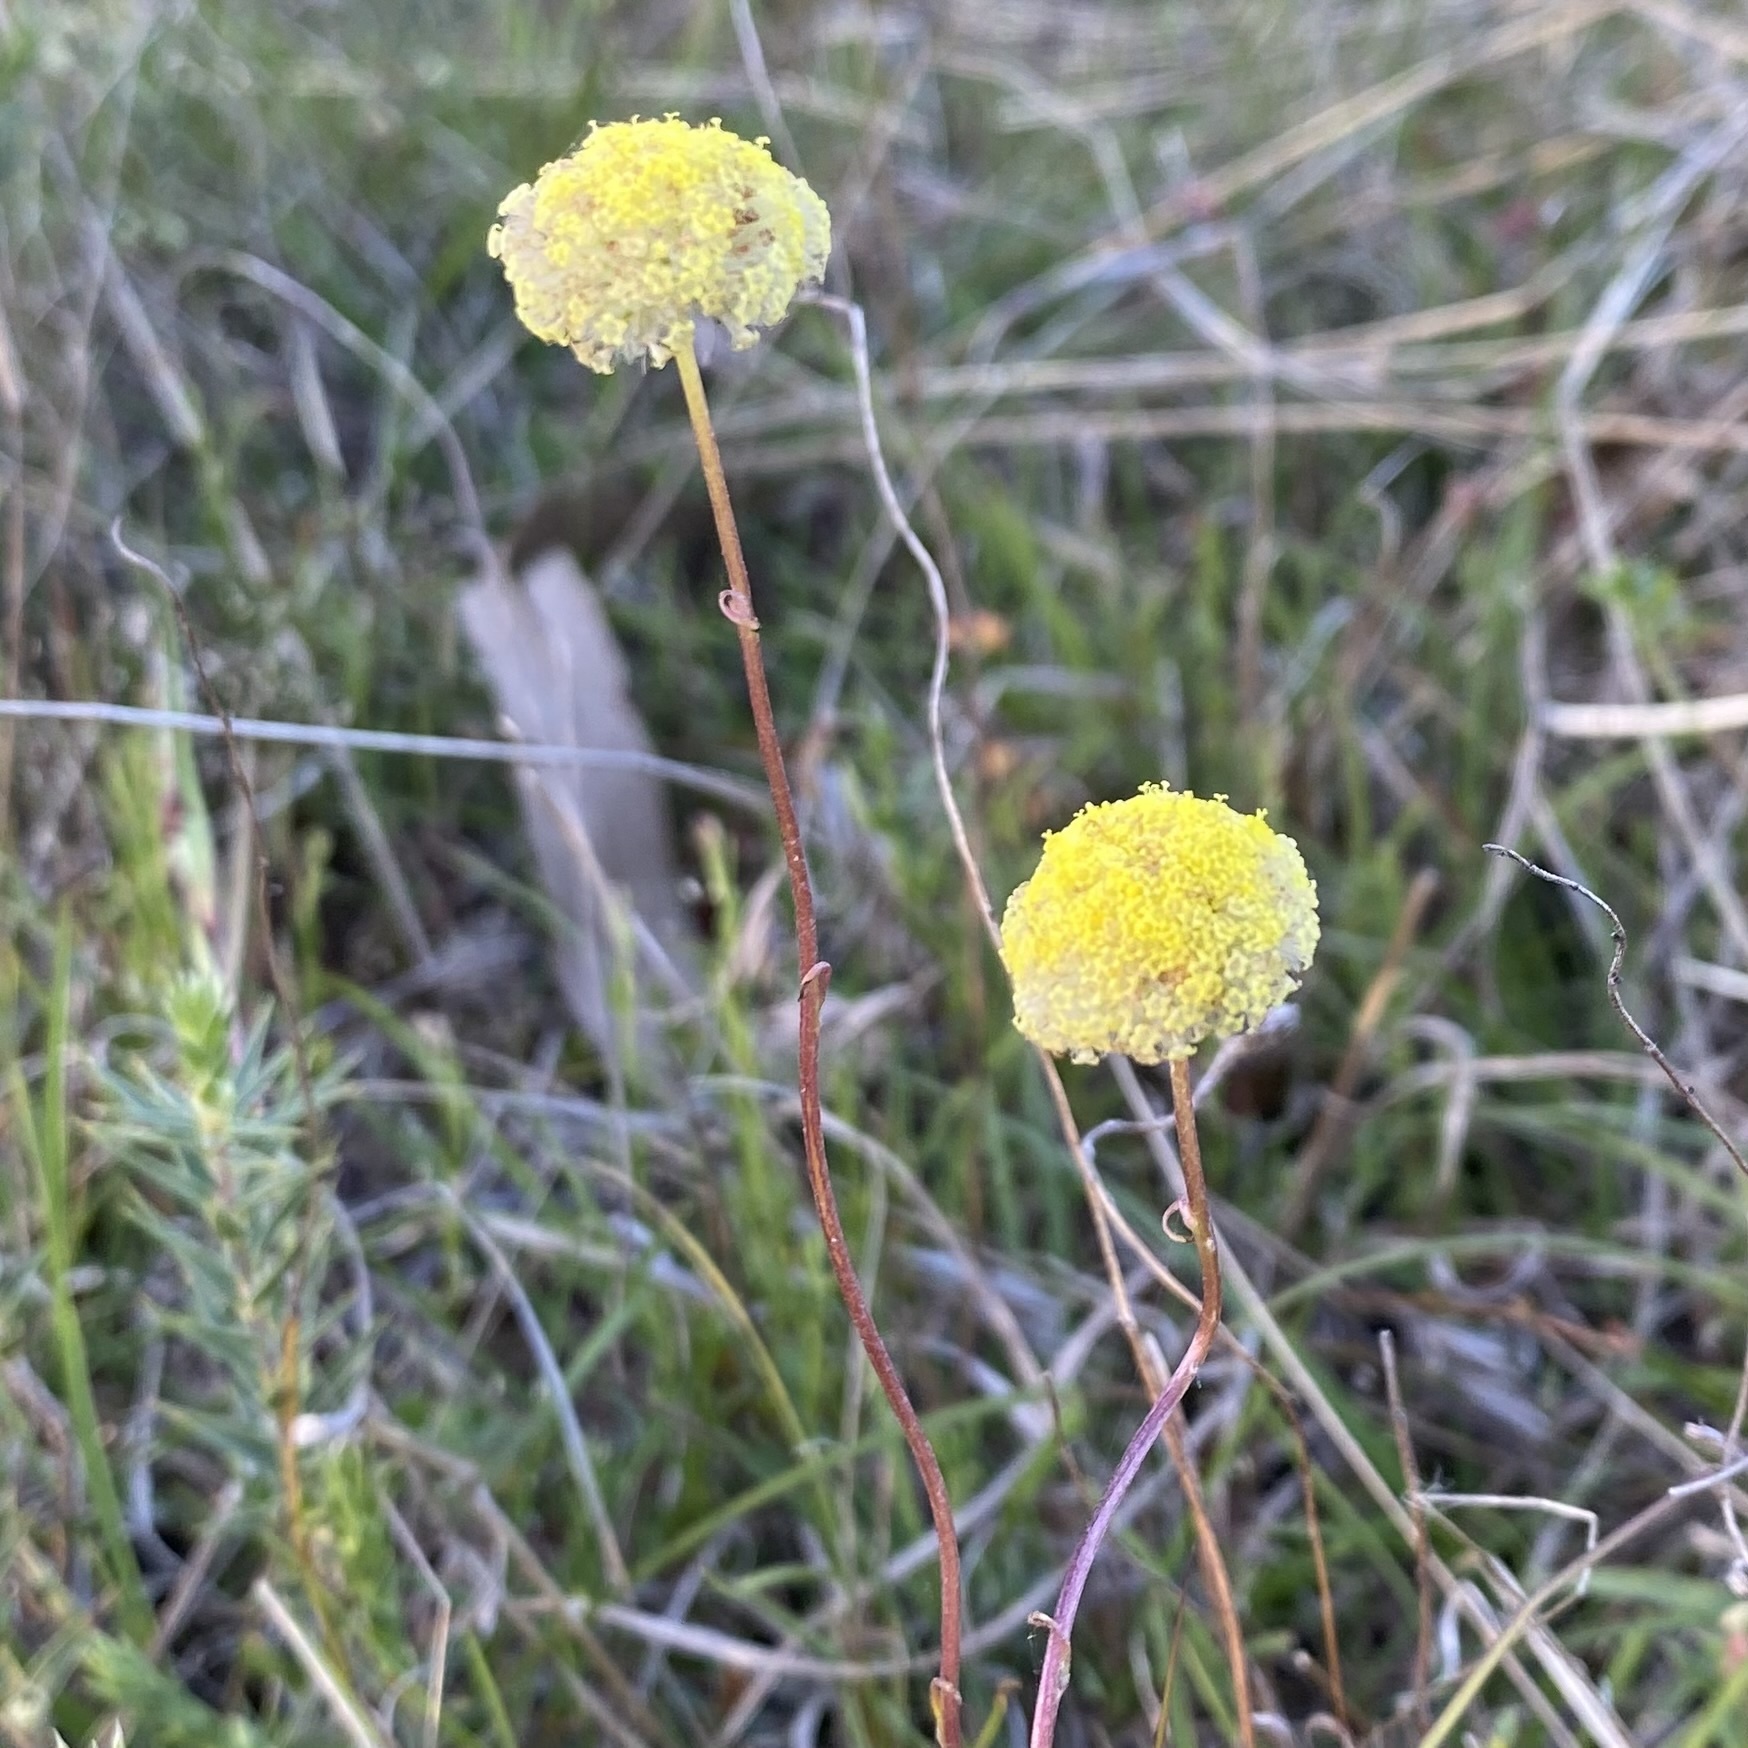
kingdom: Plantae
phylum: Tracheophyta
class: Magnoliopsida
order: Asterales
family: Asteraceae
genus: Craspedia
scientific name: Craspedia
